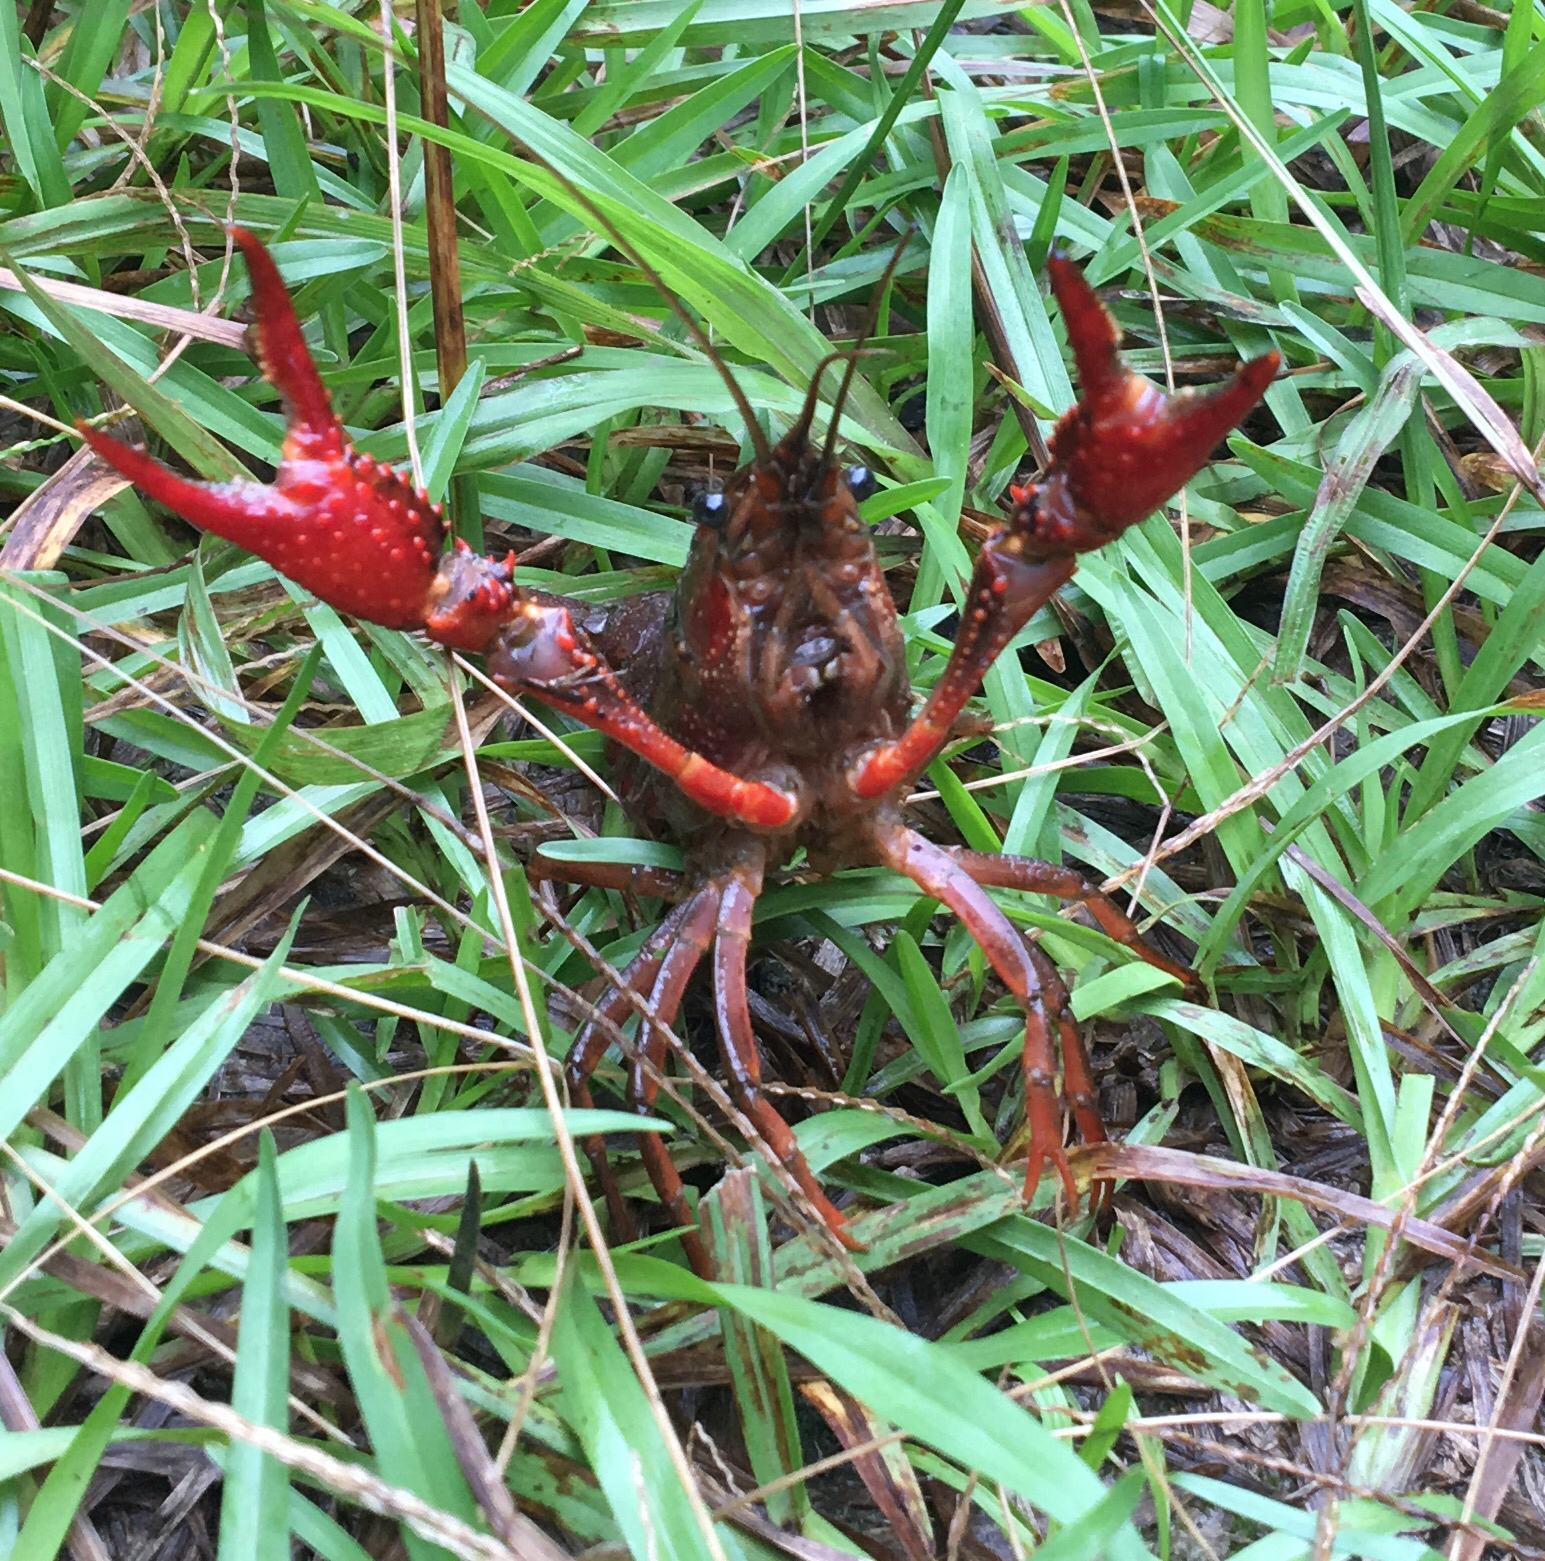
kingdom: Animalia
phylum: Arthropoda
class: Malacostraca
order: Decapoda
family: Cambaridae
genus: Procambarus
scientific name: Procambarus clarkii
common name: Red swamp crayfish
